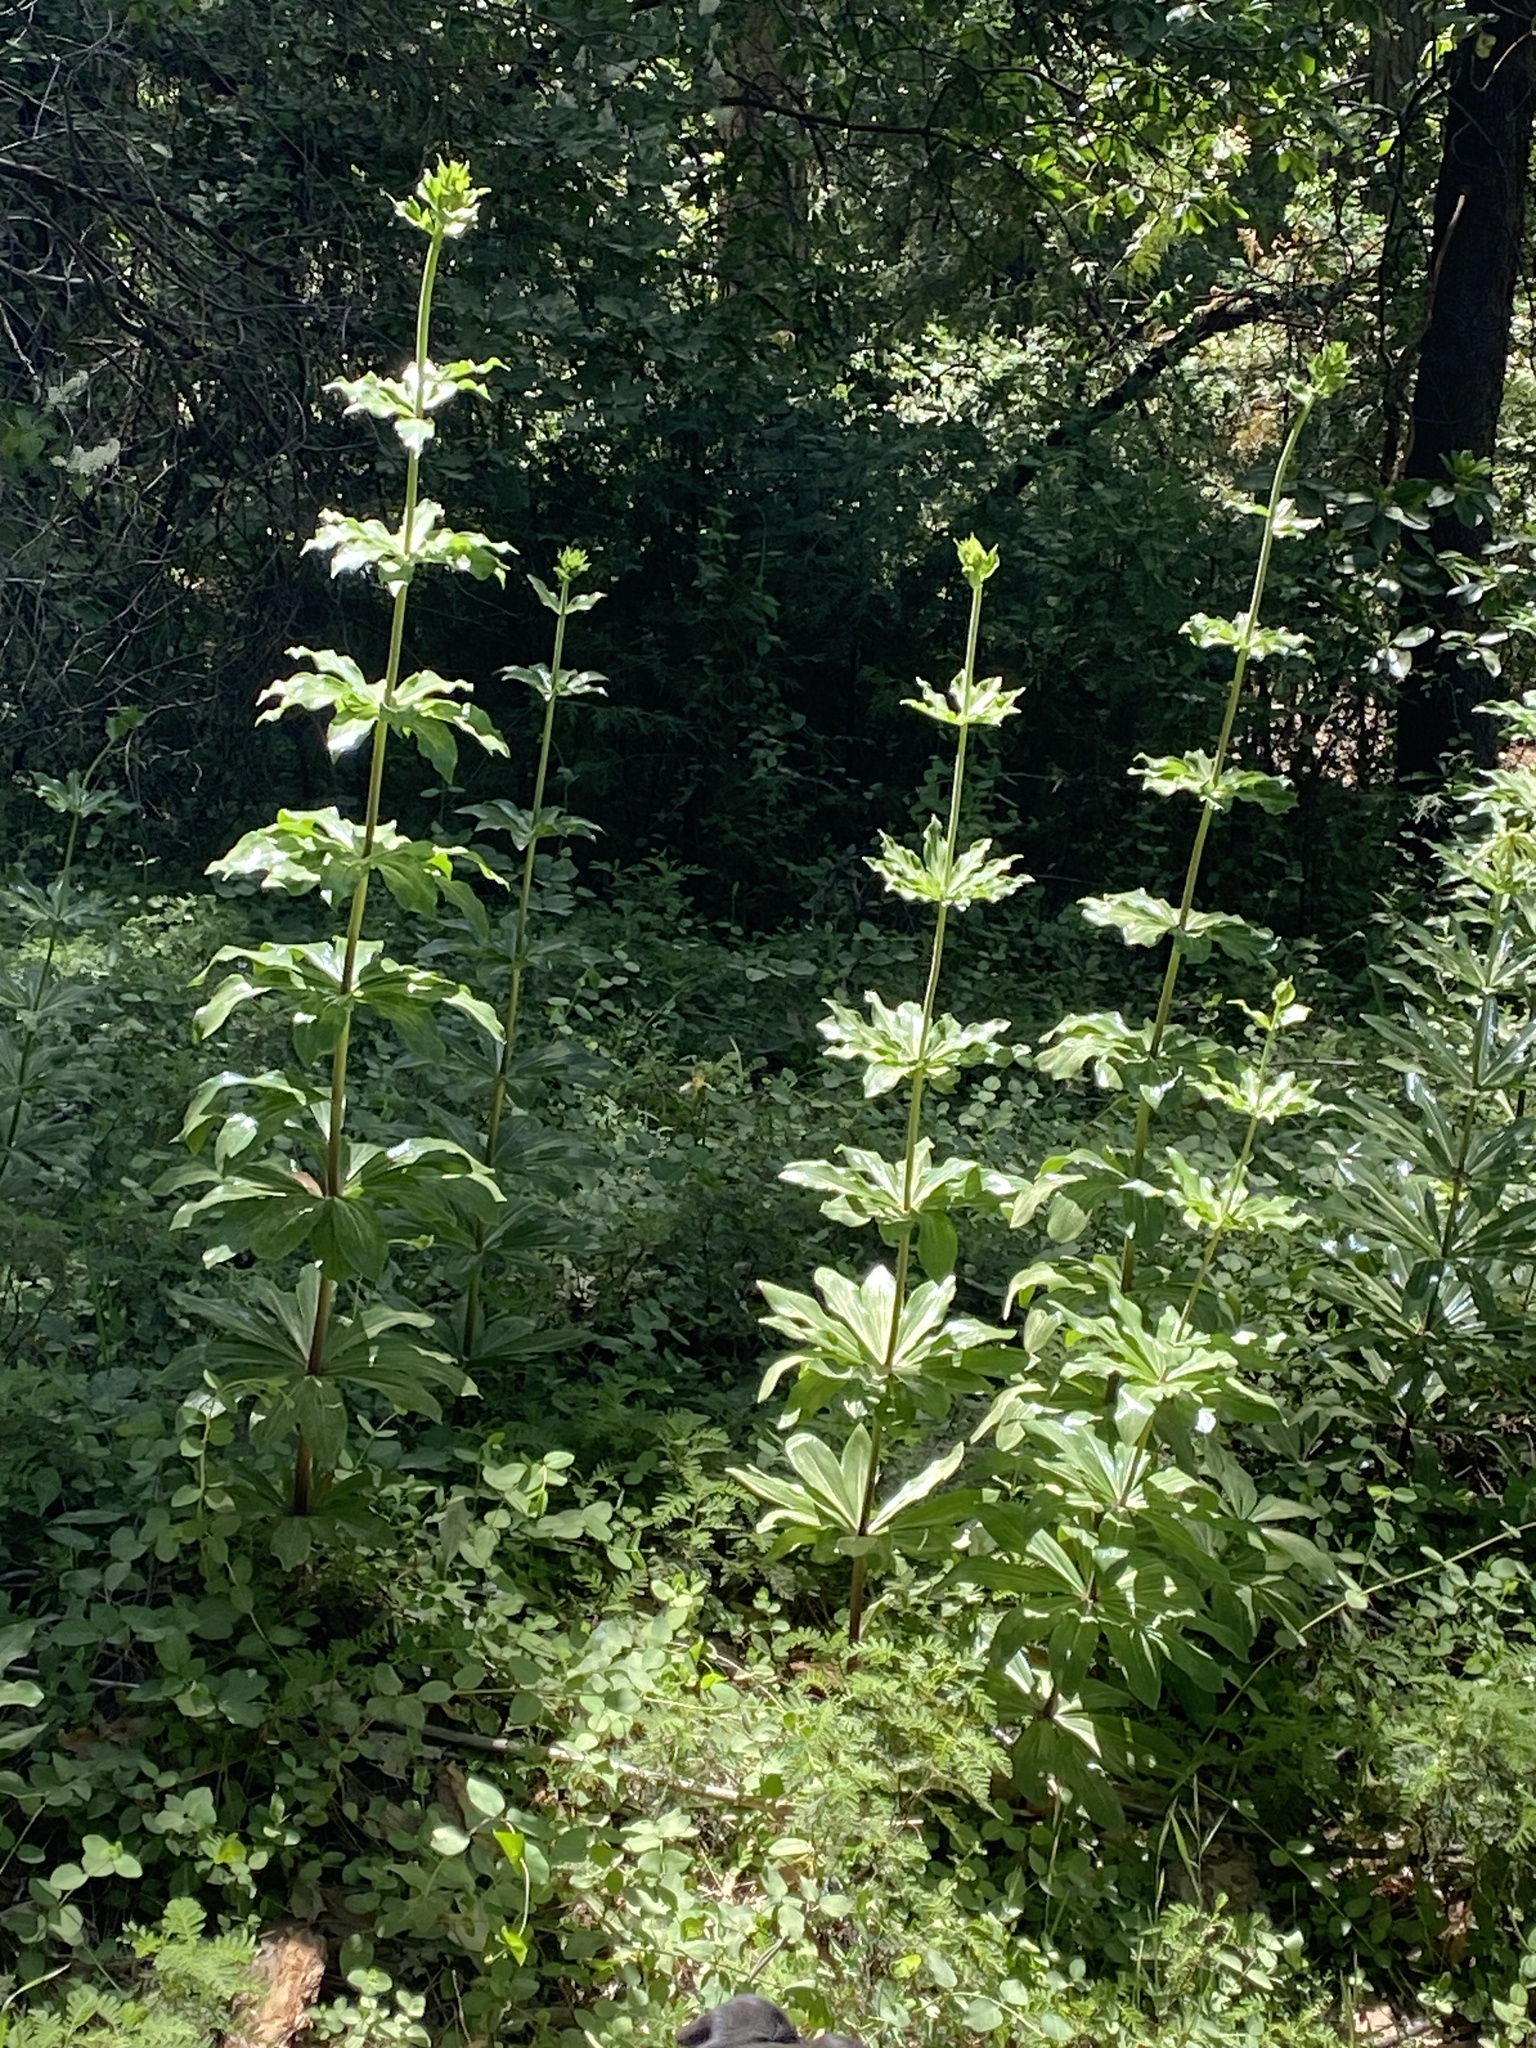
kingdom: Plantae
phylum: Tracheophyta
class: Liliopsida
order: Liliales
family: Liliaceae
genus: Lilium
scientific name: Lilium humboldtii
